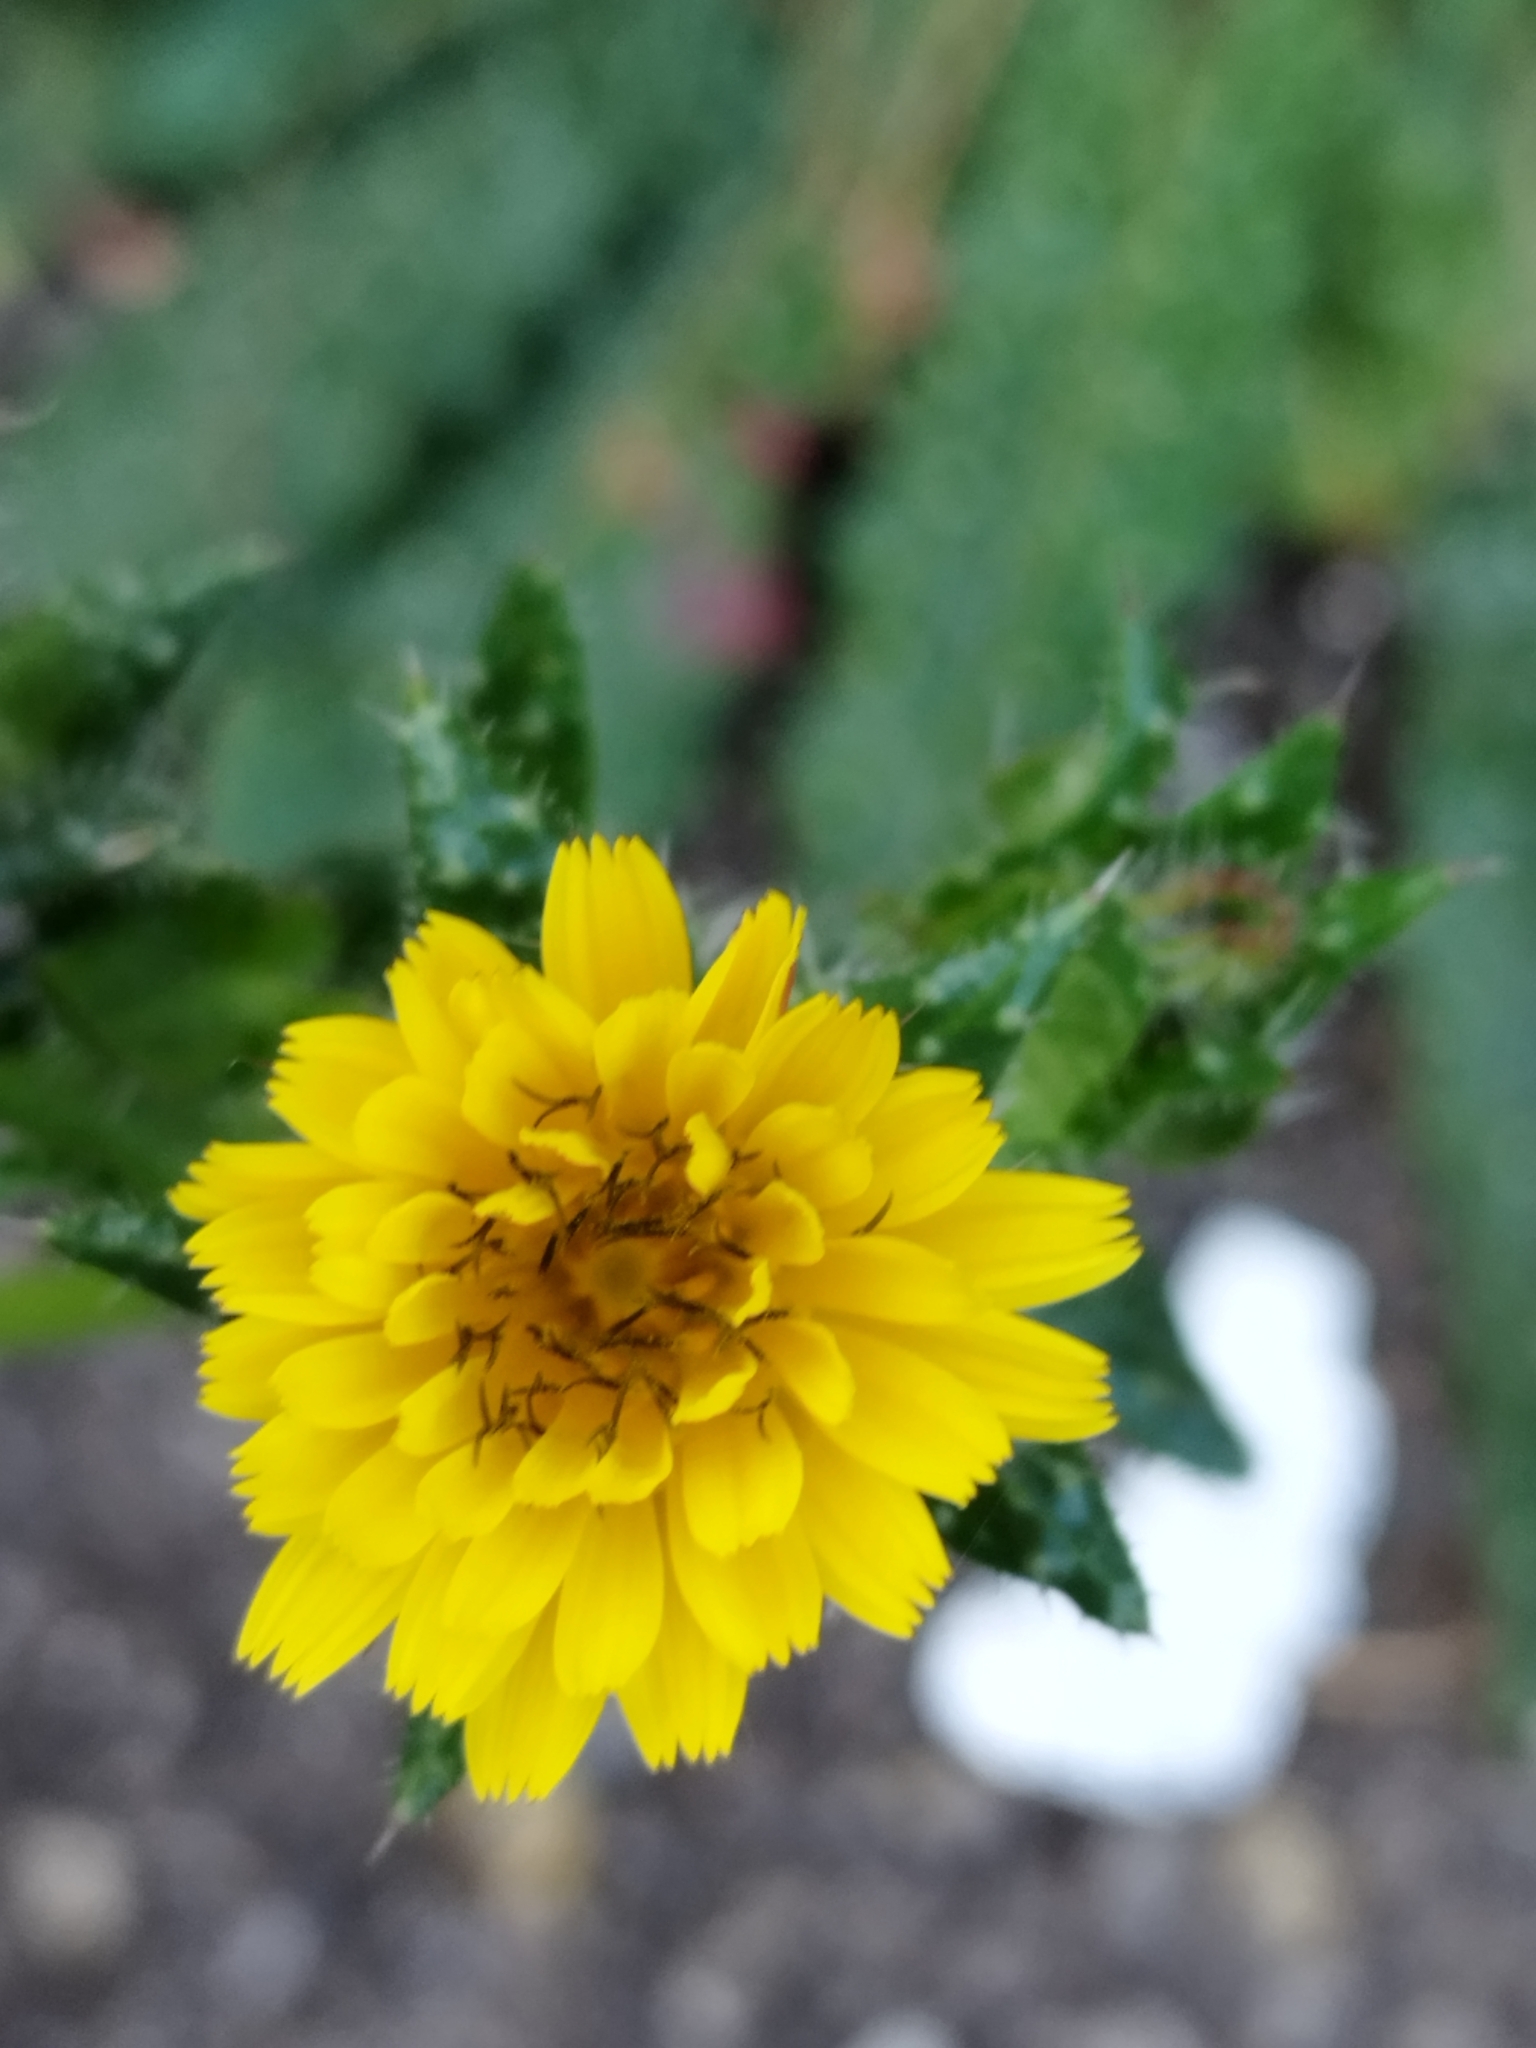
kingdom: Plantae
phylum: Tracheophyta
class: Magnoliopsida
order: Asterales
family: Asteraceae
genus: Helminthotheca
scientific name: Helminthotheca echioides
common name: Ox-tongue
